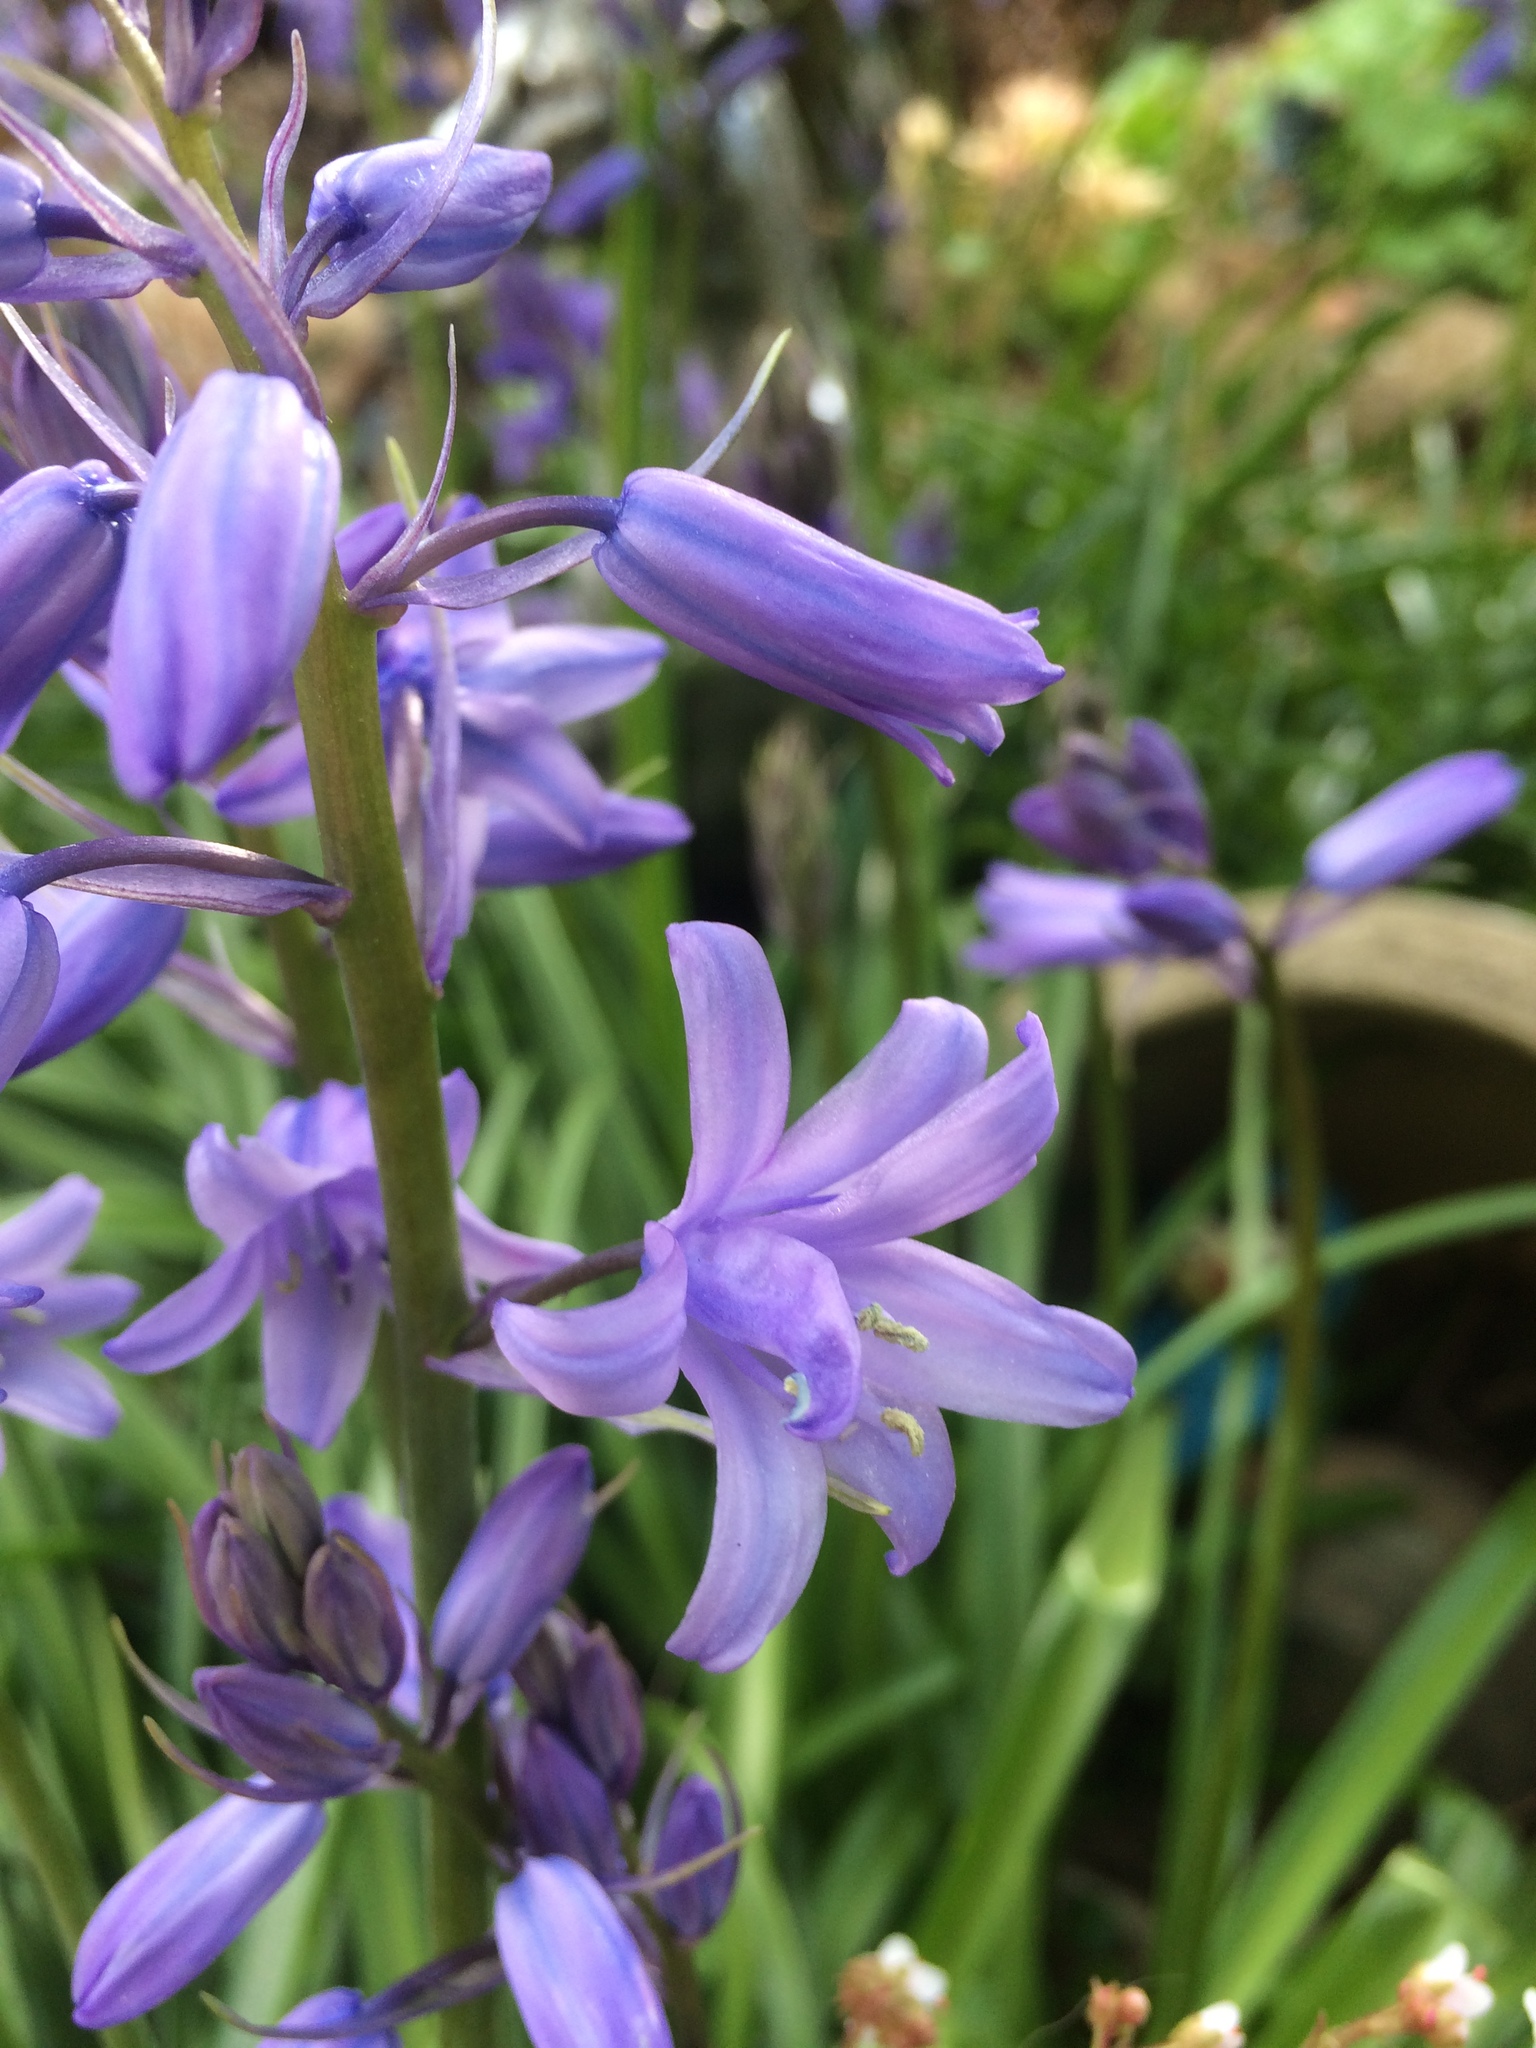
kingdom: Plantae
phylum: Tracheophyta
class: Liliopsida
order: Asparagales
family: Asparagaceae
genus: Hyacinthoides
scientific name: Hyacinthoides hispanica
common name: Spanish bluebell
